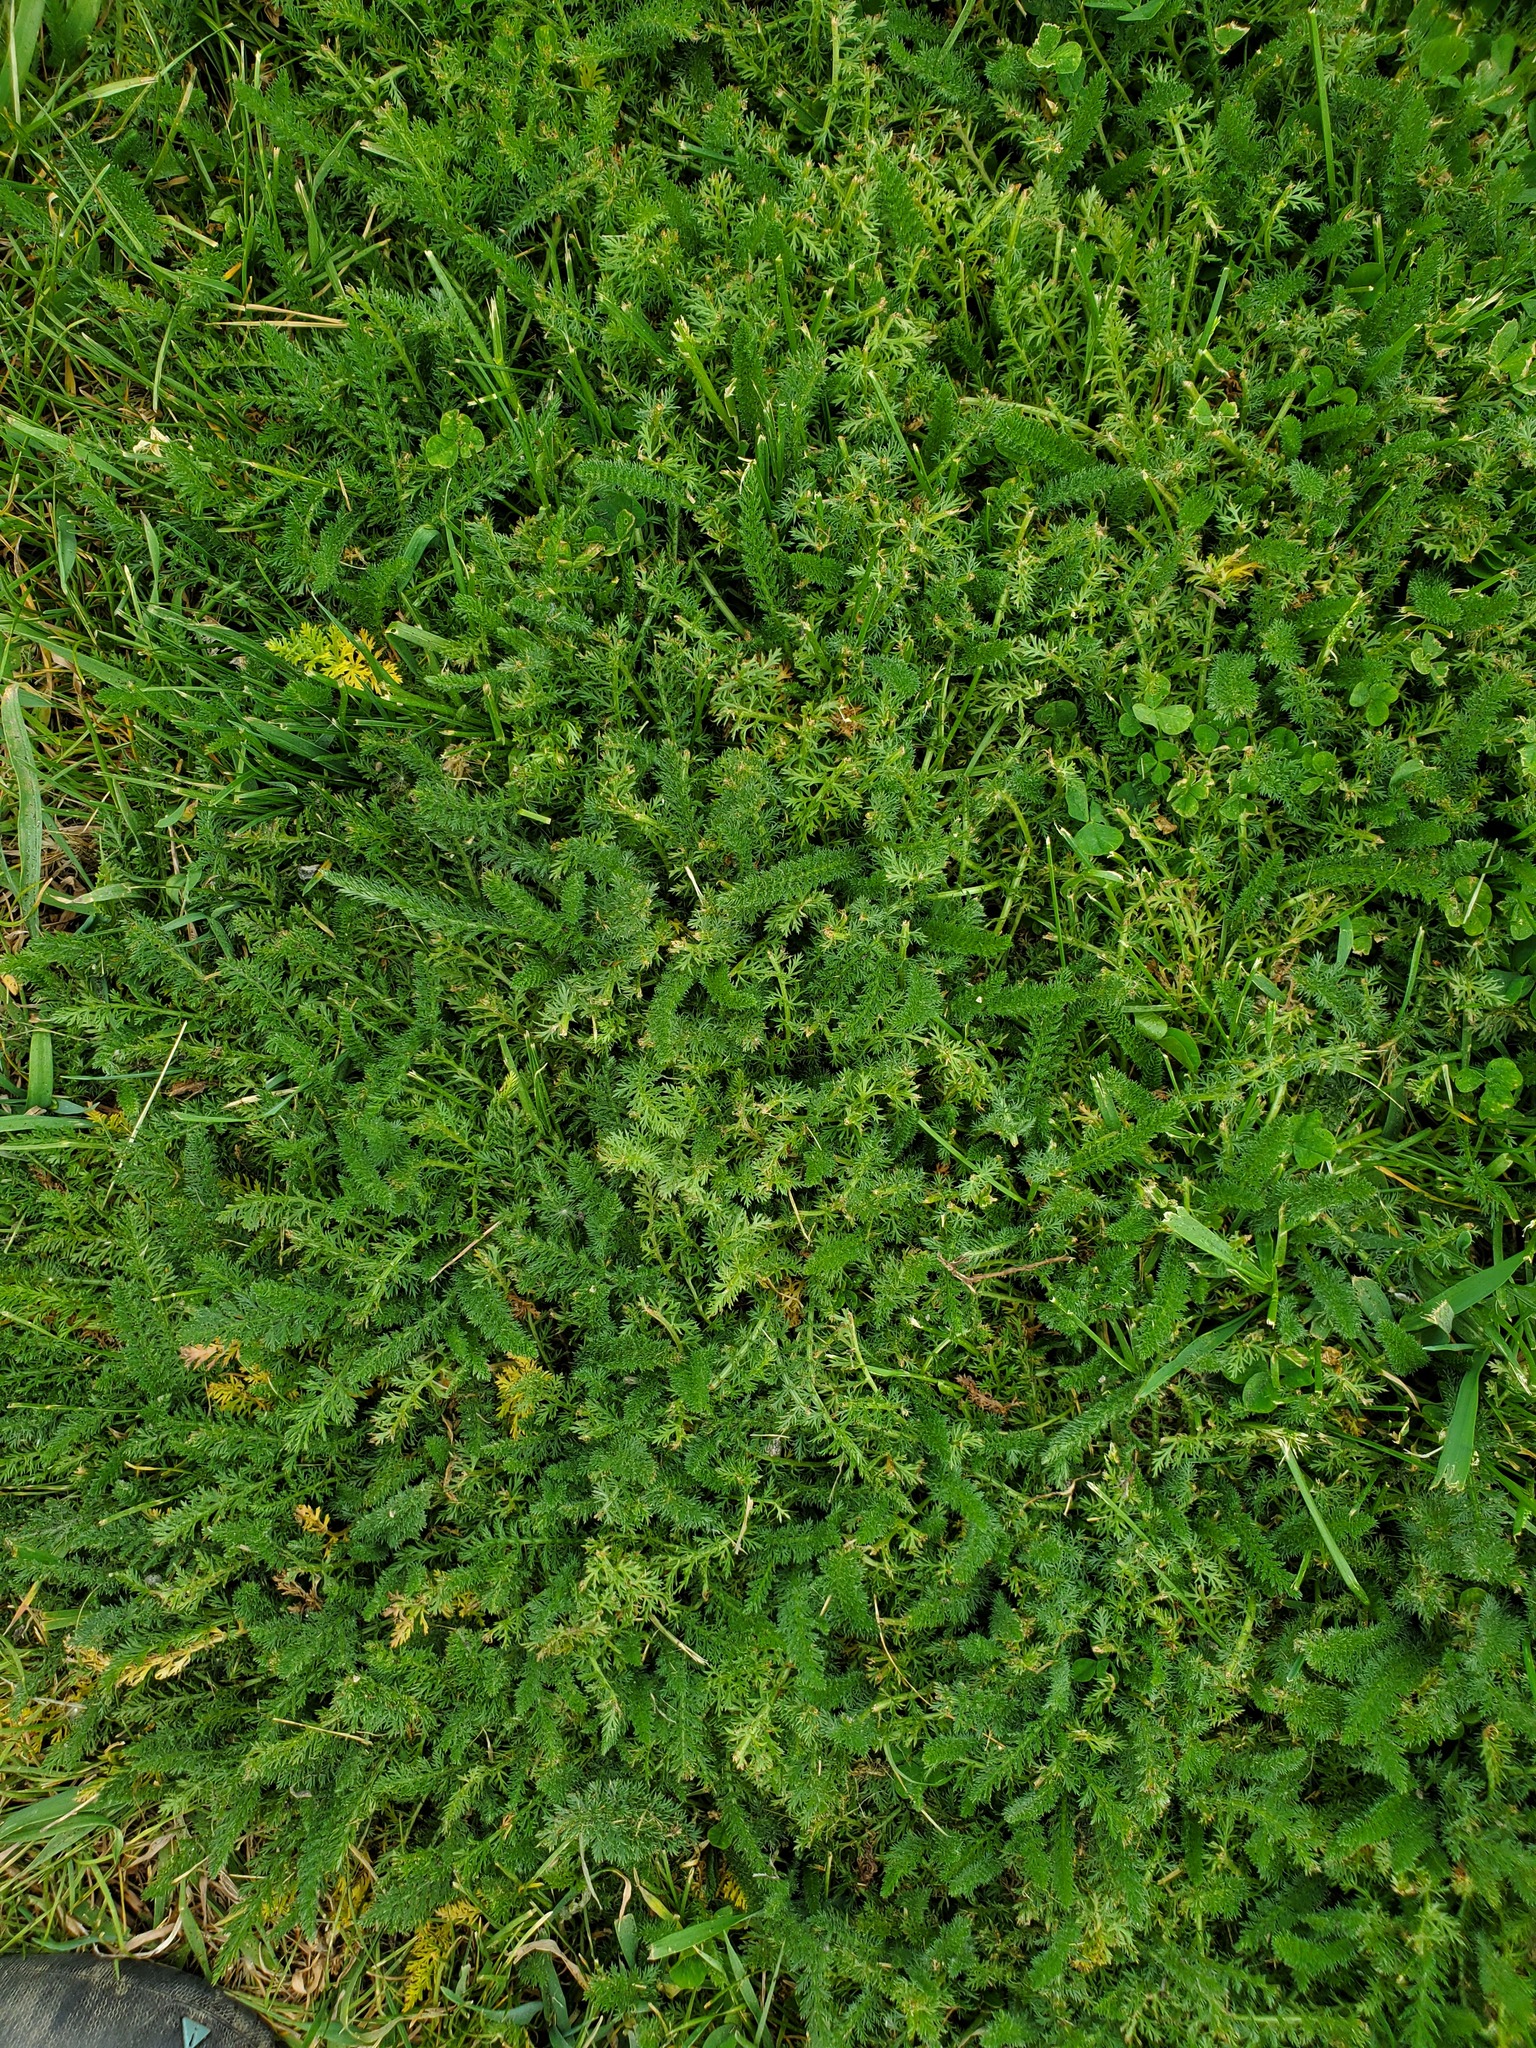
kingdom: Plantae
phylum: Tracheophyta
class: Magnoliopsida
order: Asterales
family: Asteraceae
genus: Achillea
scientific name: Achillea millefolium
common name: Yarrow
